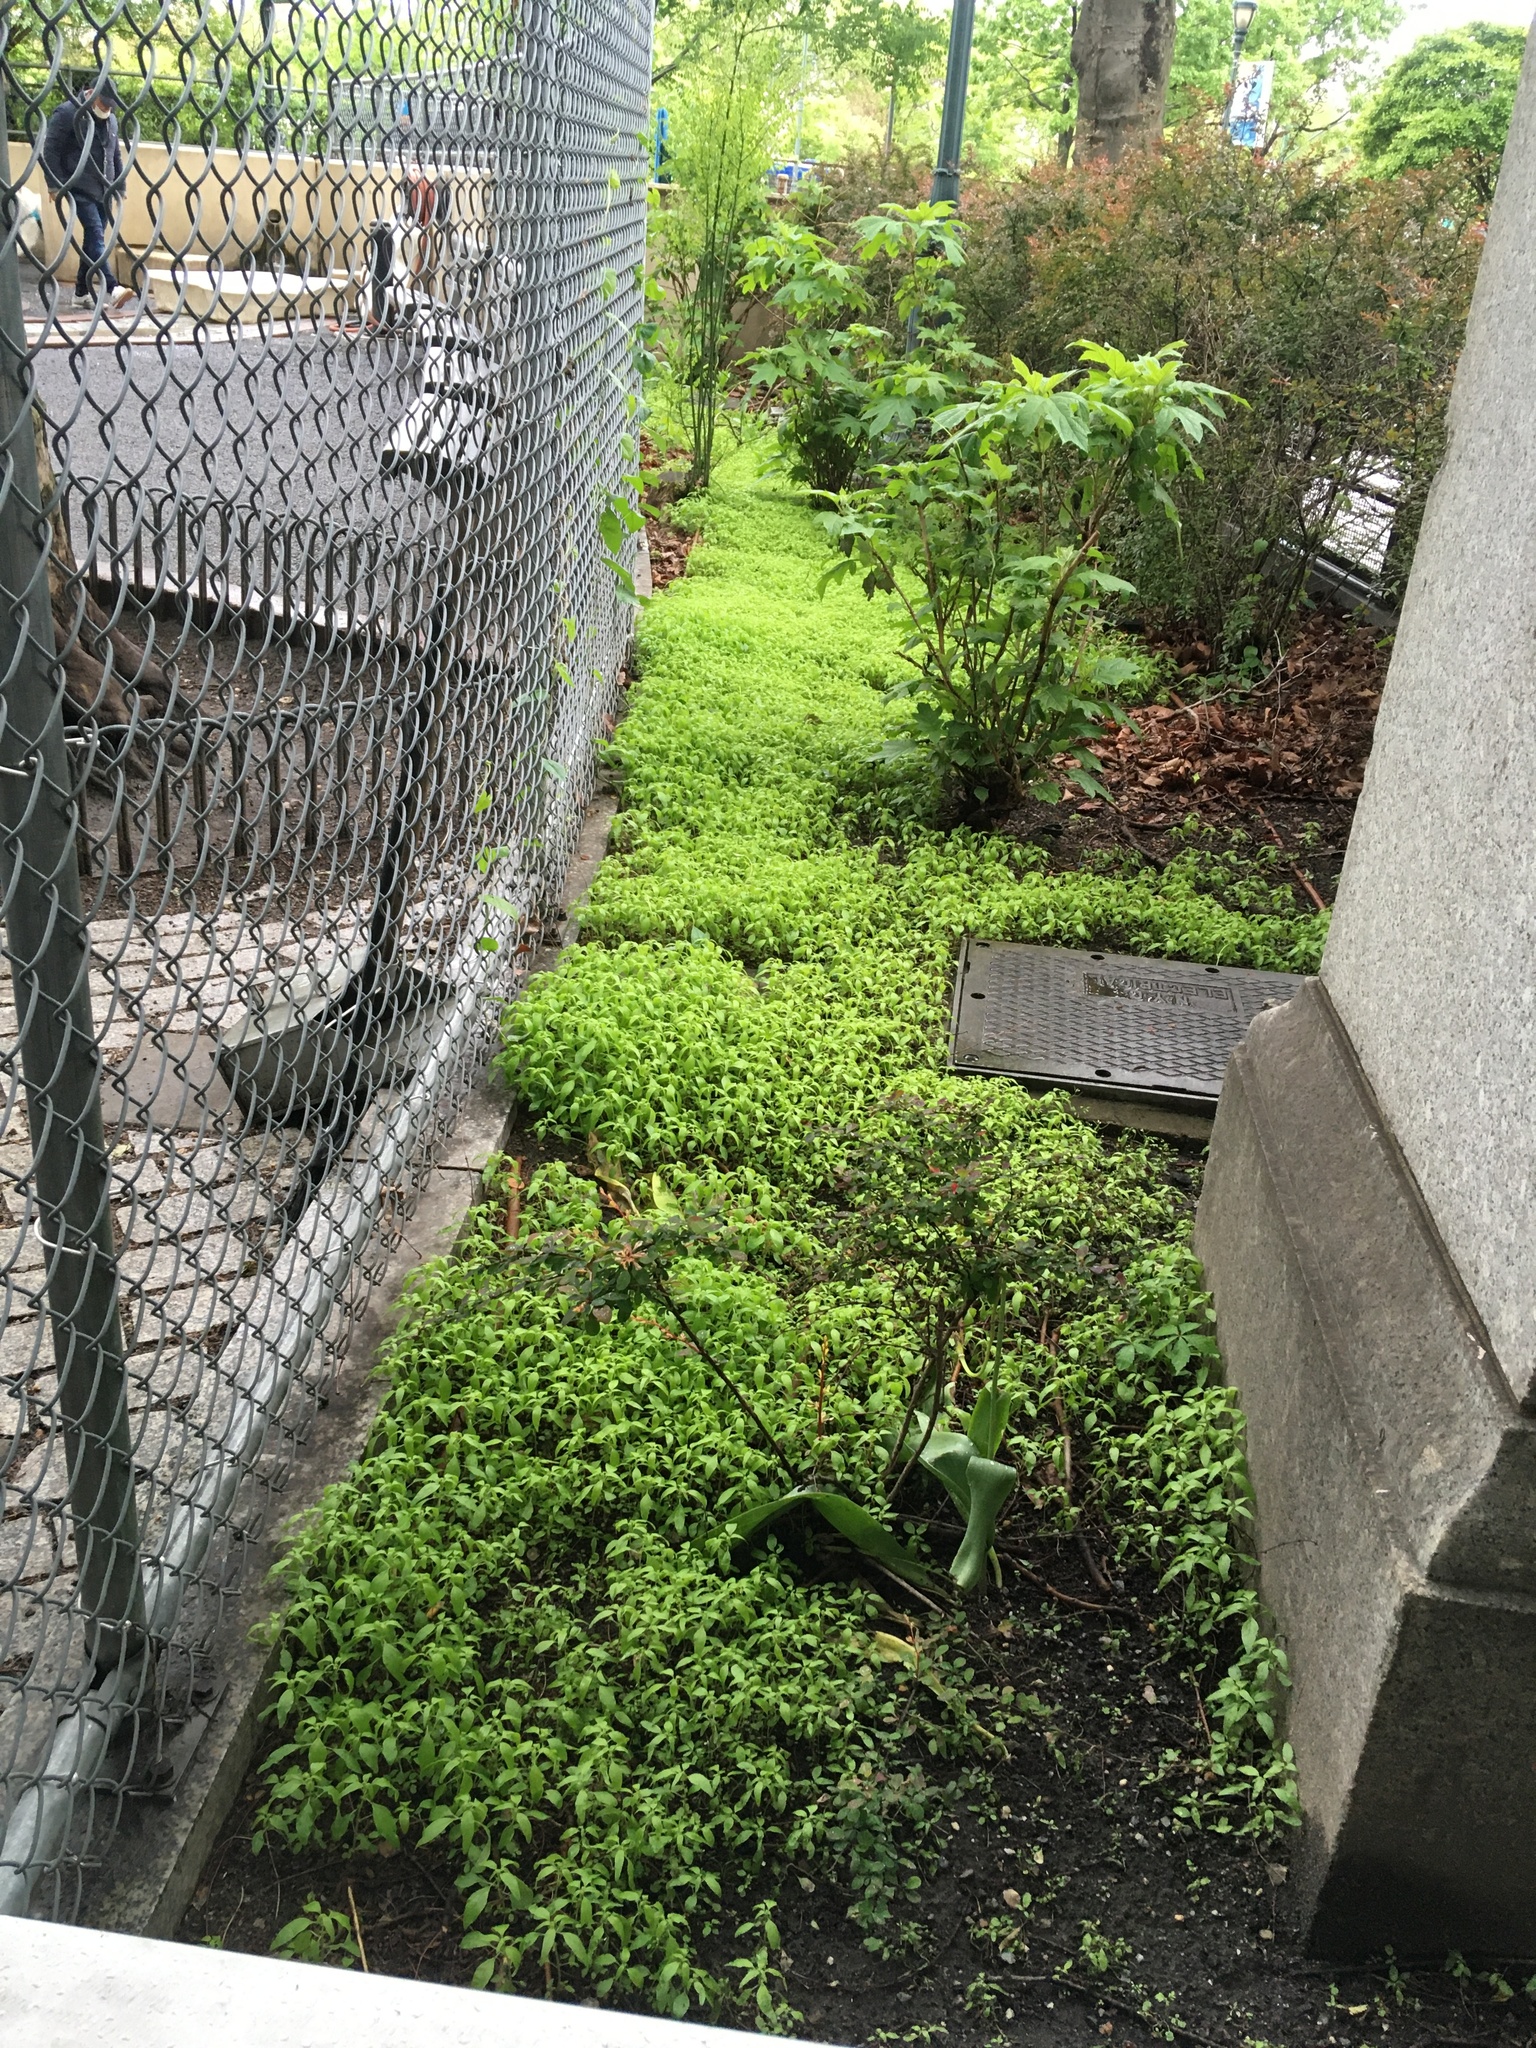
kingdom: Plantae
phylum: Tracheophyta
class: Magnoliopsida
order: Rosales
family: Urticaceae
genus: Parietaria
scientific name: Parietaria pensylvanica
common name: Pennsylvania pellitory
